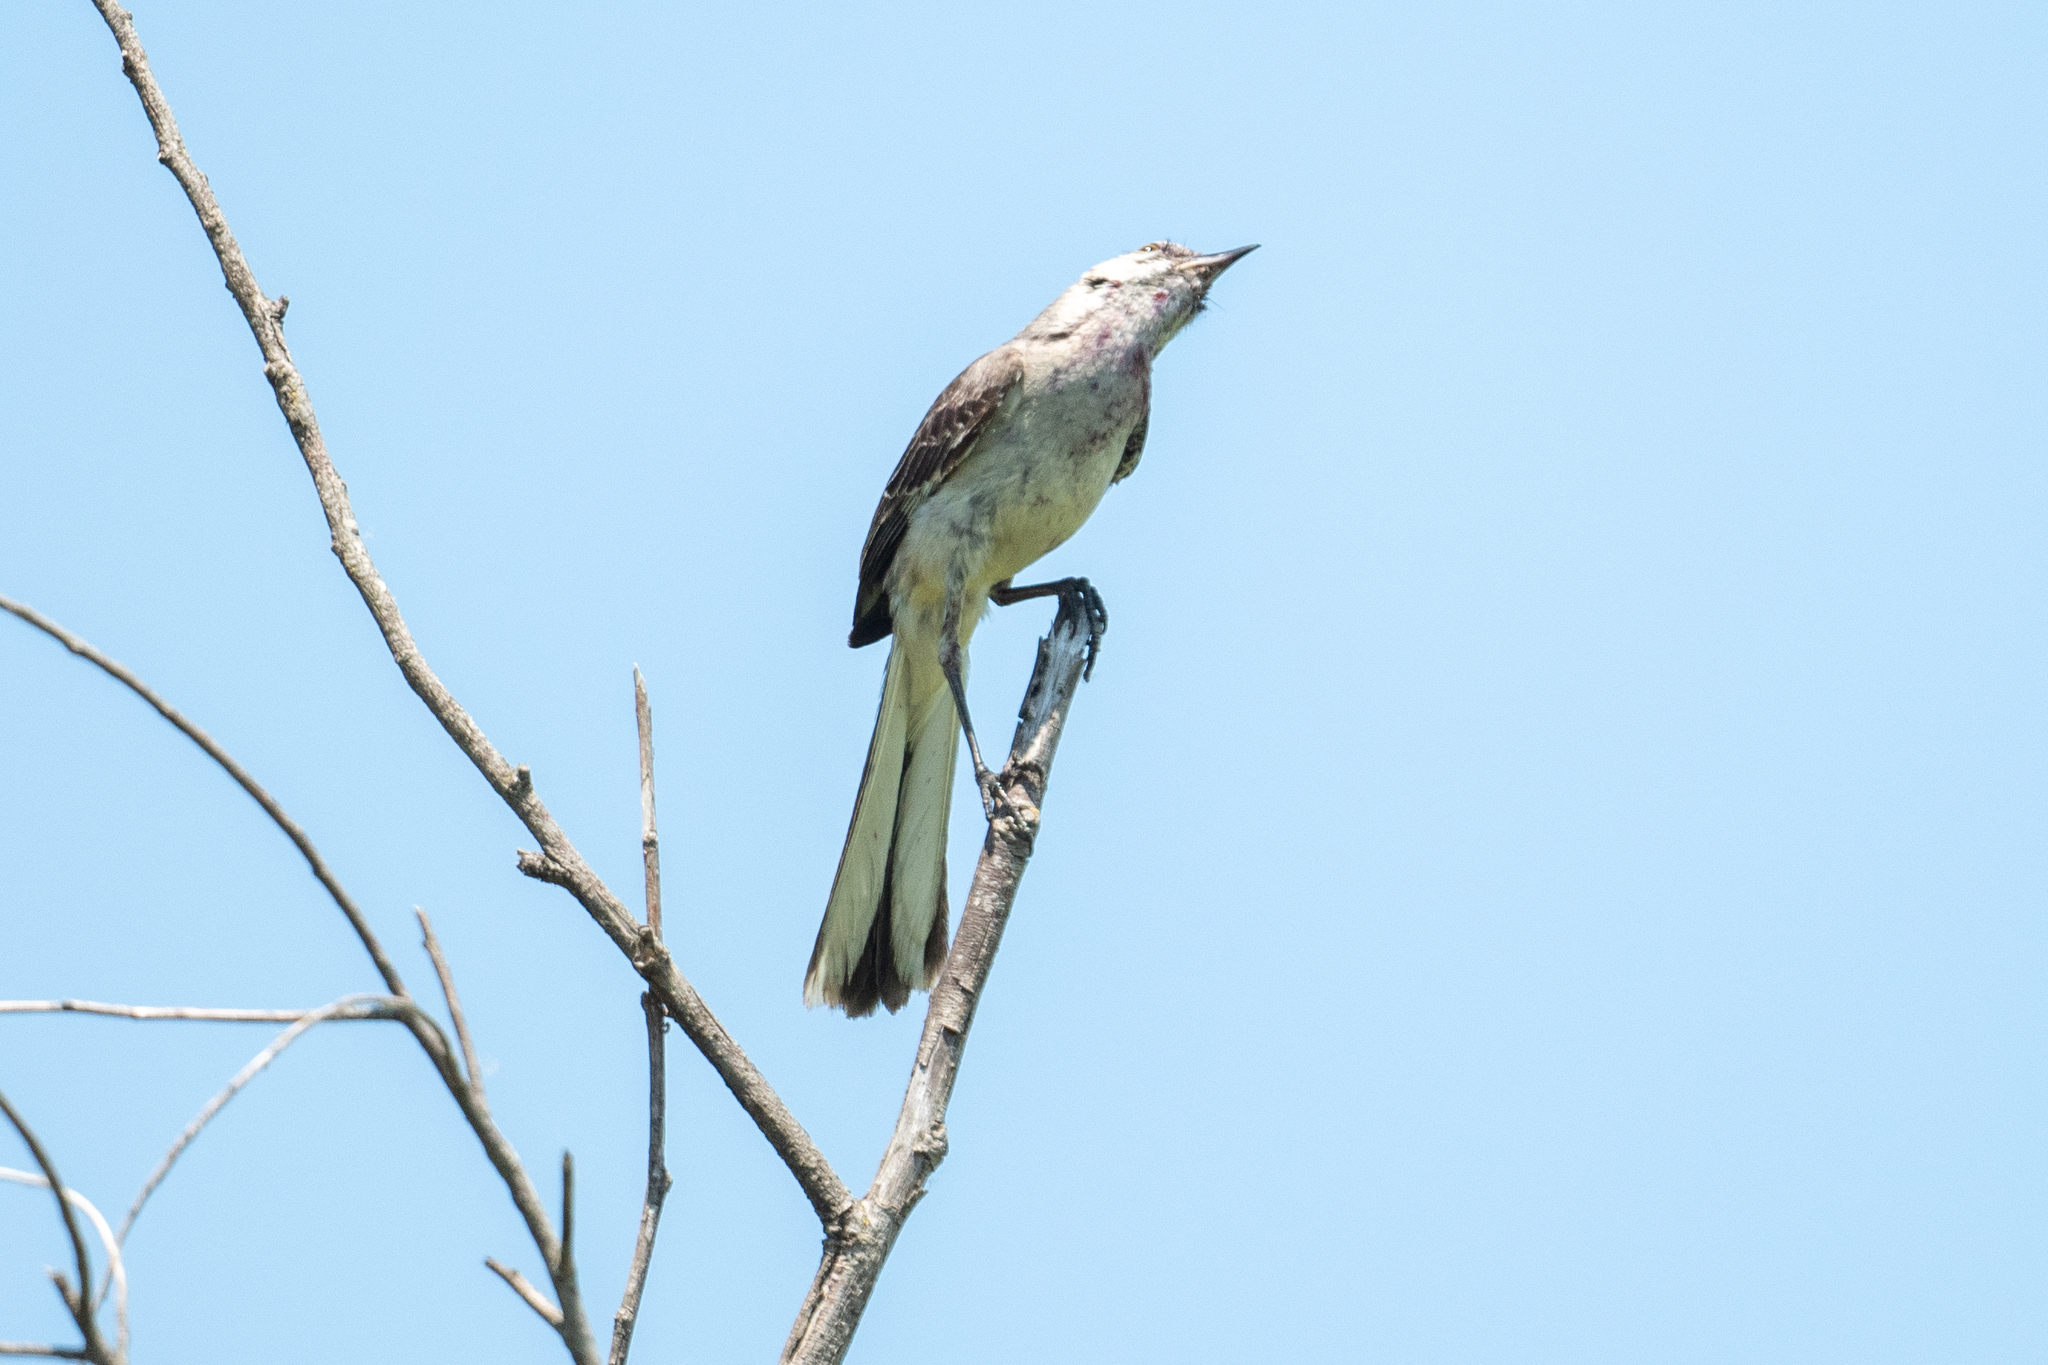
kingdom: Animalia
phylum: Chordata
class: Aves
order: Passeriformes
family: Mimidae
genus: Mimus
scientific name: Mimus polyglottos
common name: Northern mockingbird
